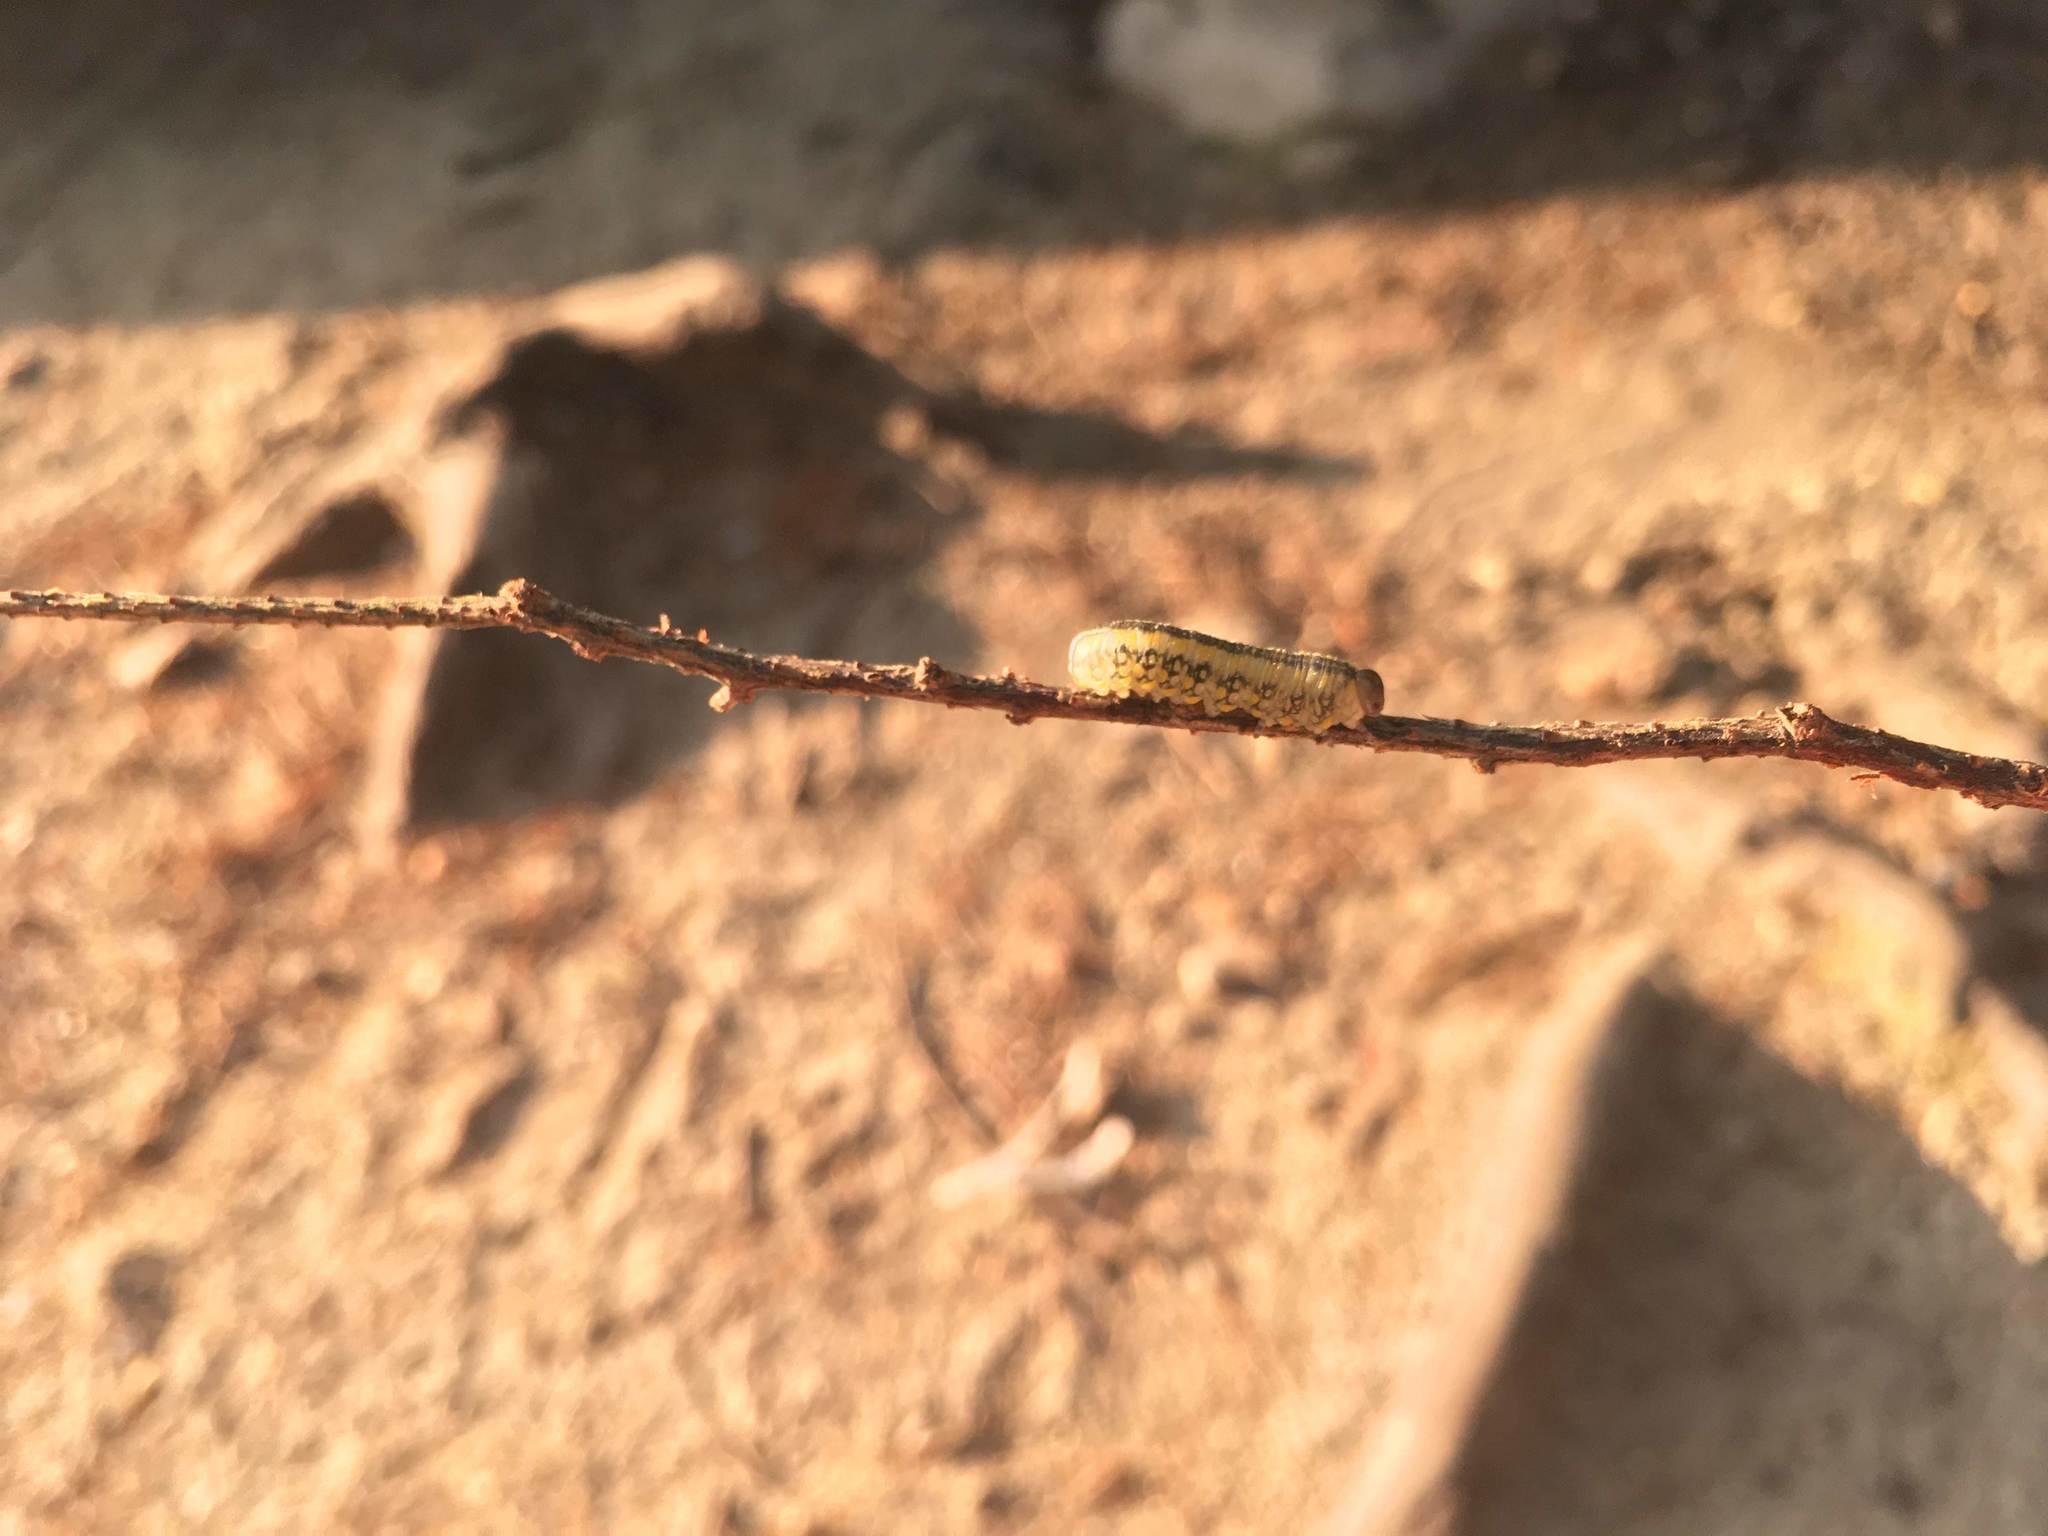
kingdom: Animalia
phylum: Arthropoda
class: Insecta
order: Hymenoptera
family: Diprionidae
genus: Diprion
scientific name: Diprion similis
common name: Pine sawfly
